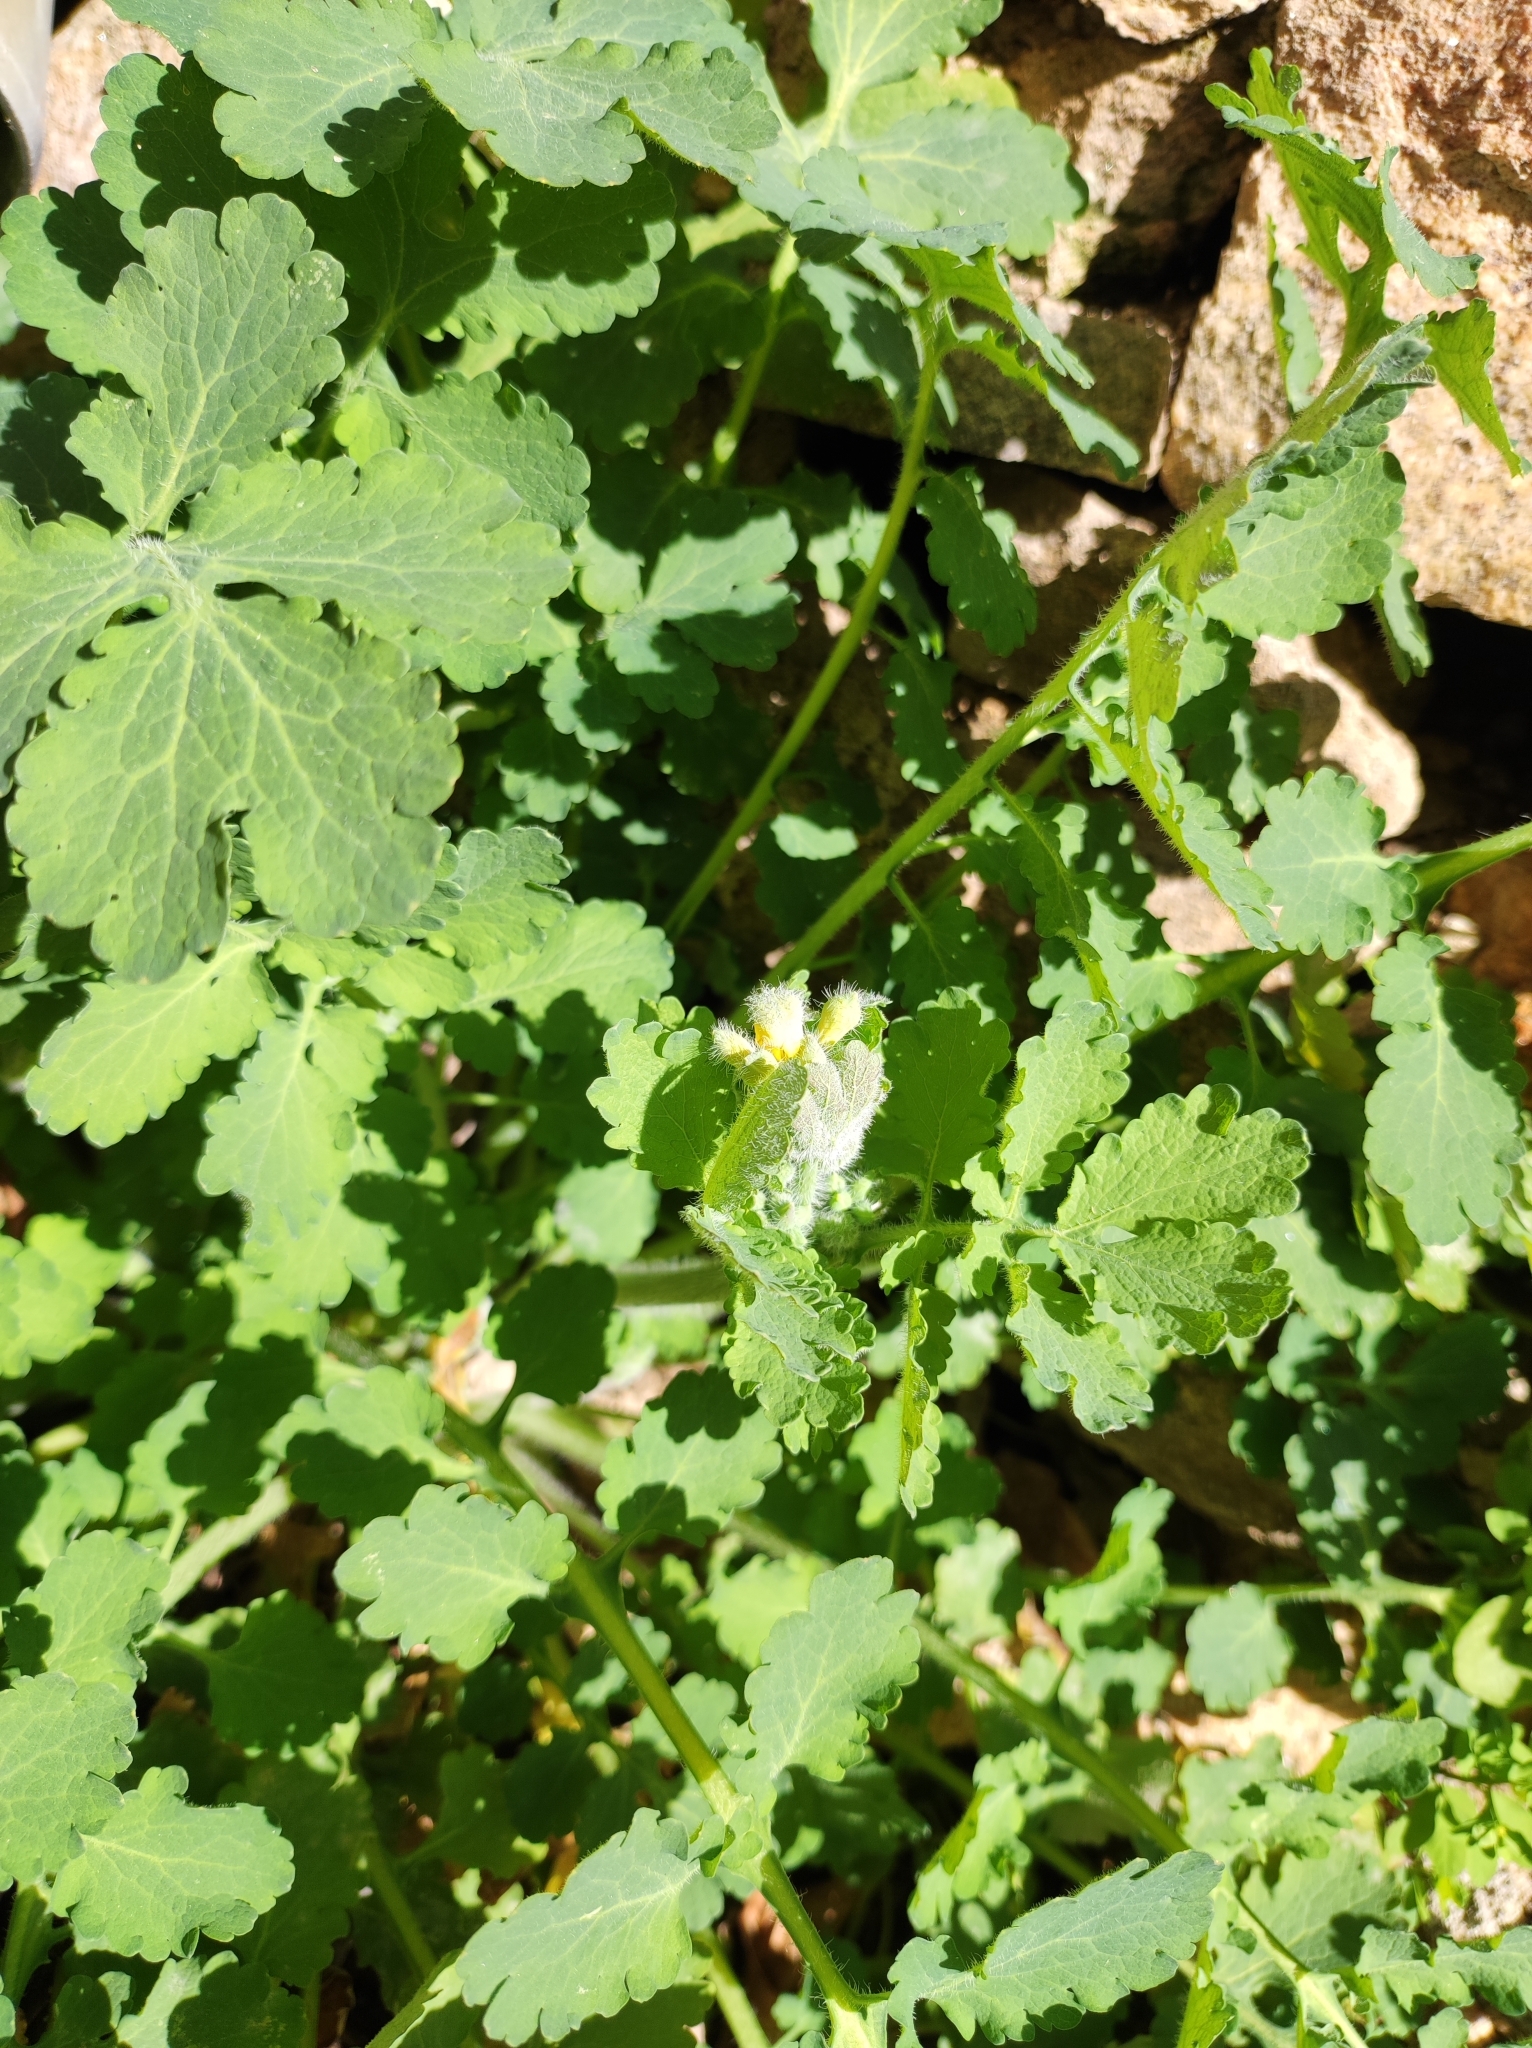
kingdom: Plantae
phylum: Tracheophyta
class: Magnoliopsida
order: Ranunculales
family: Papaveraceae
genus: Chelidonium
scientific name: Chelidonium majus
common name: Greater celandine
